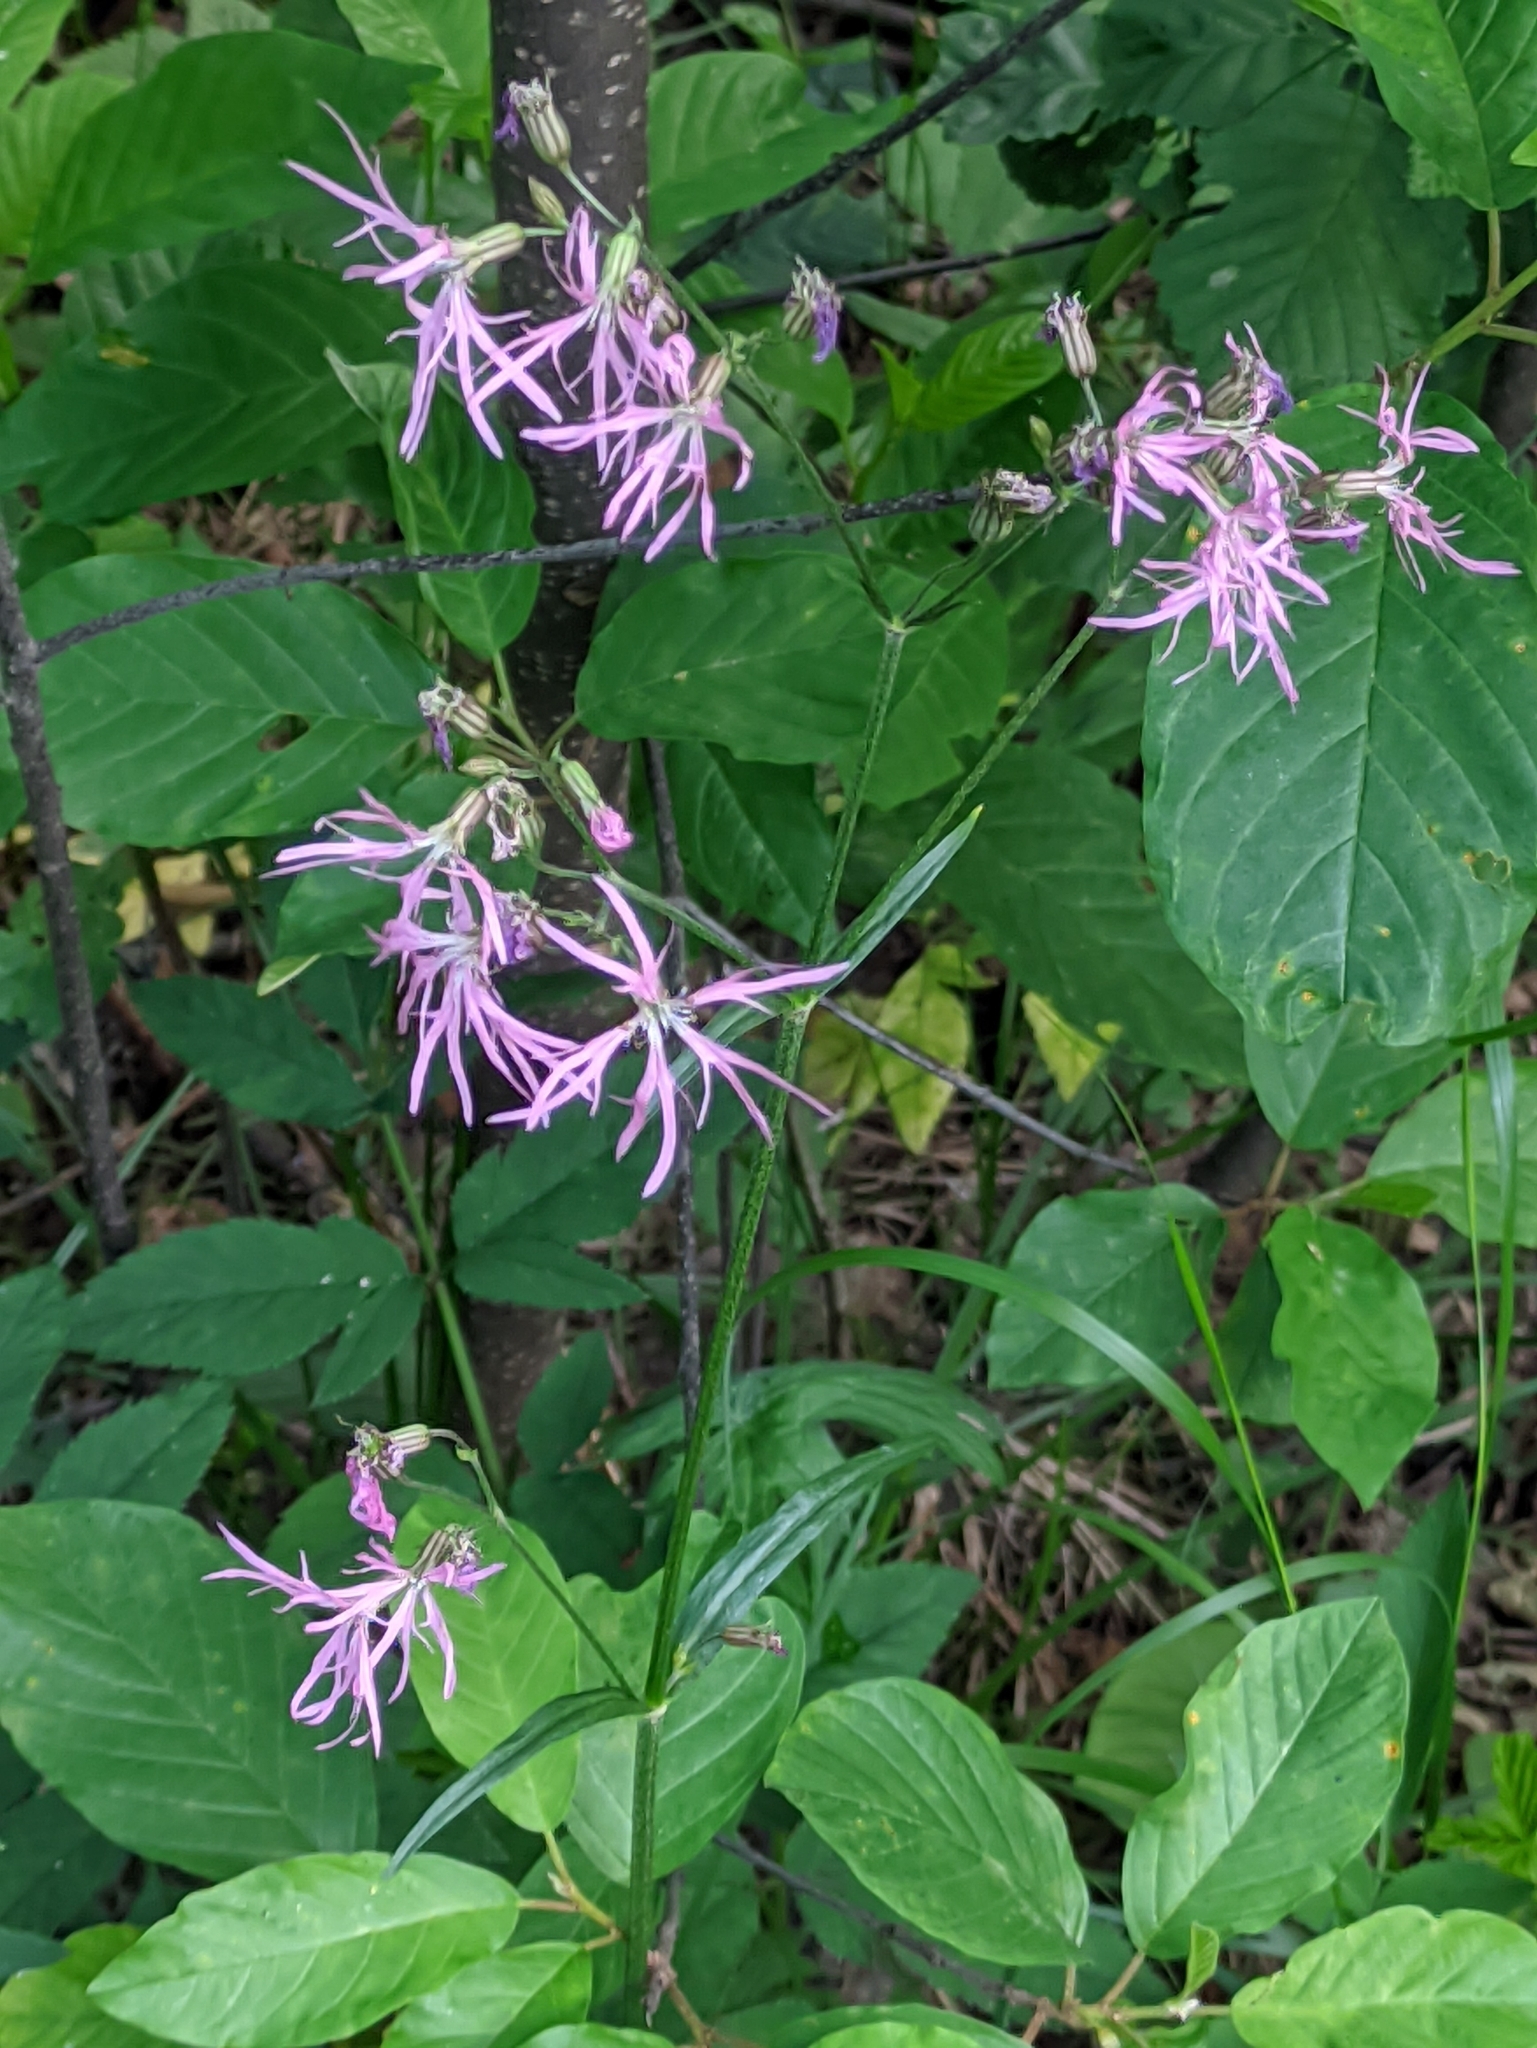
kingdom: Plantae
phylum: Tracheophyta
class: Magnoliopsida
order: Caryophyllales
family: Caryophyllaceae
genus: Silene
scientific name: Silene flos-cuculi
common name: Ragged-robin
